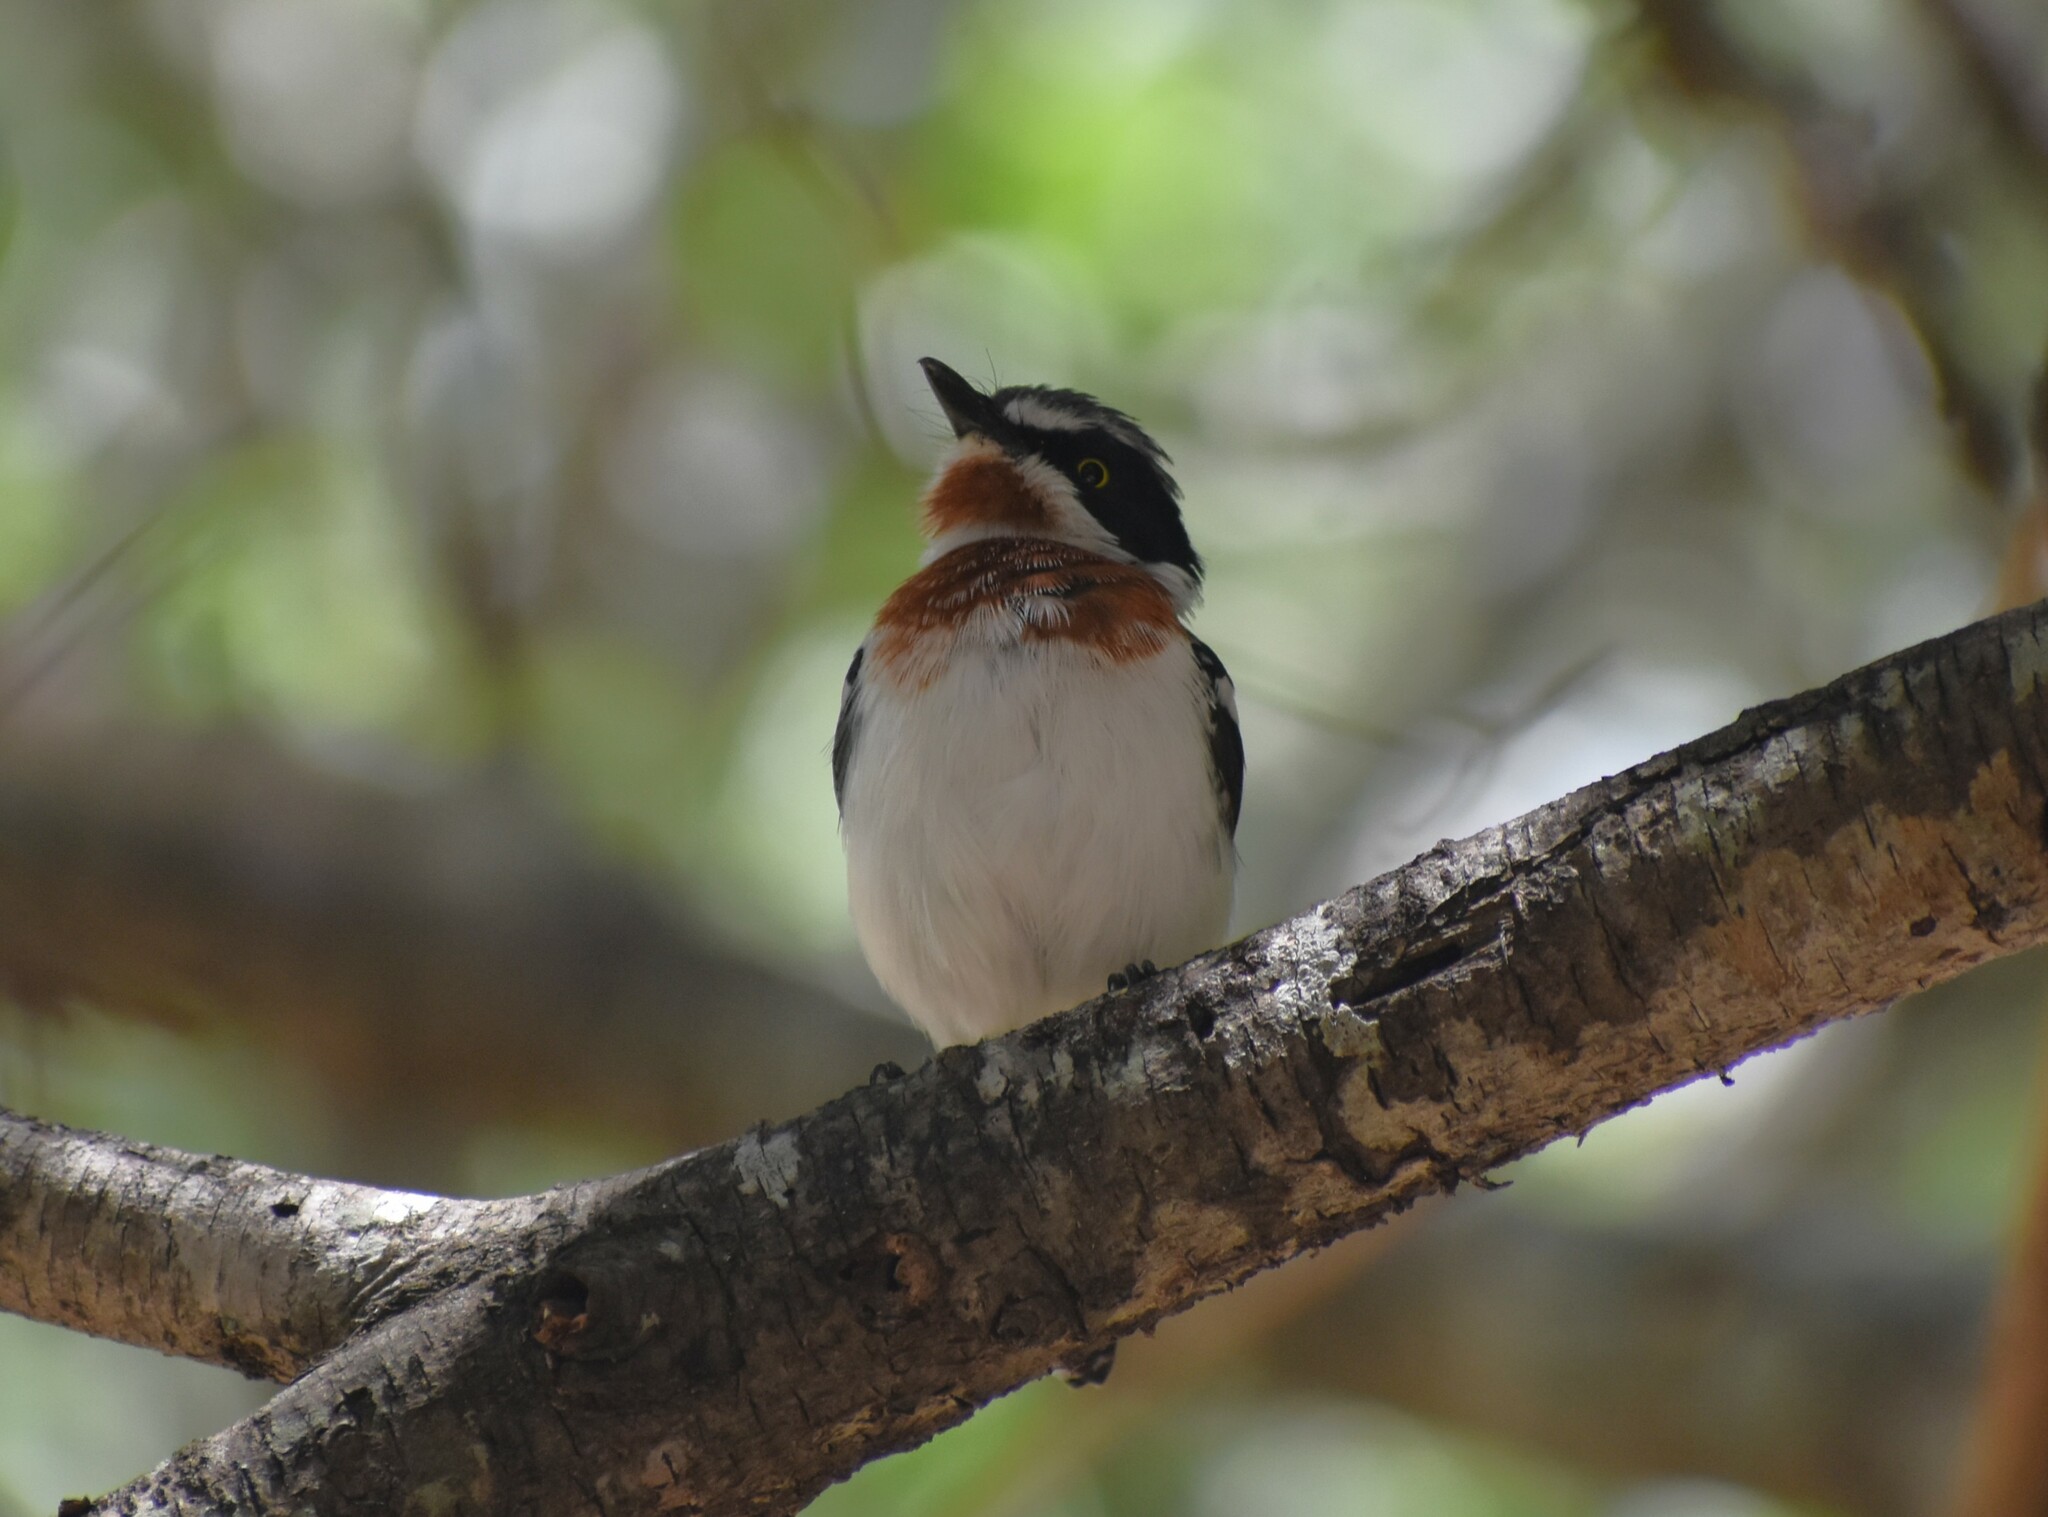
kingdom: Animalia
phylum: Chordata
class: Aves
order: Passeriformes
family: Platysteiridae
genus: Batis
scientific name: Batis molitor
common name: Chinspot batis
